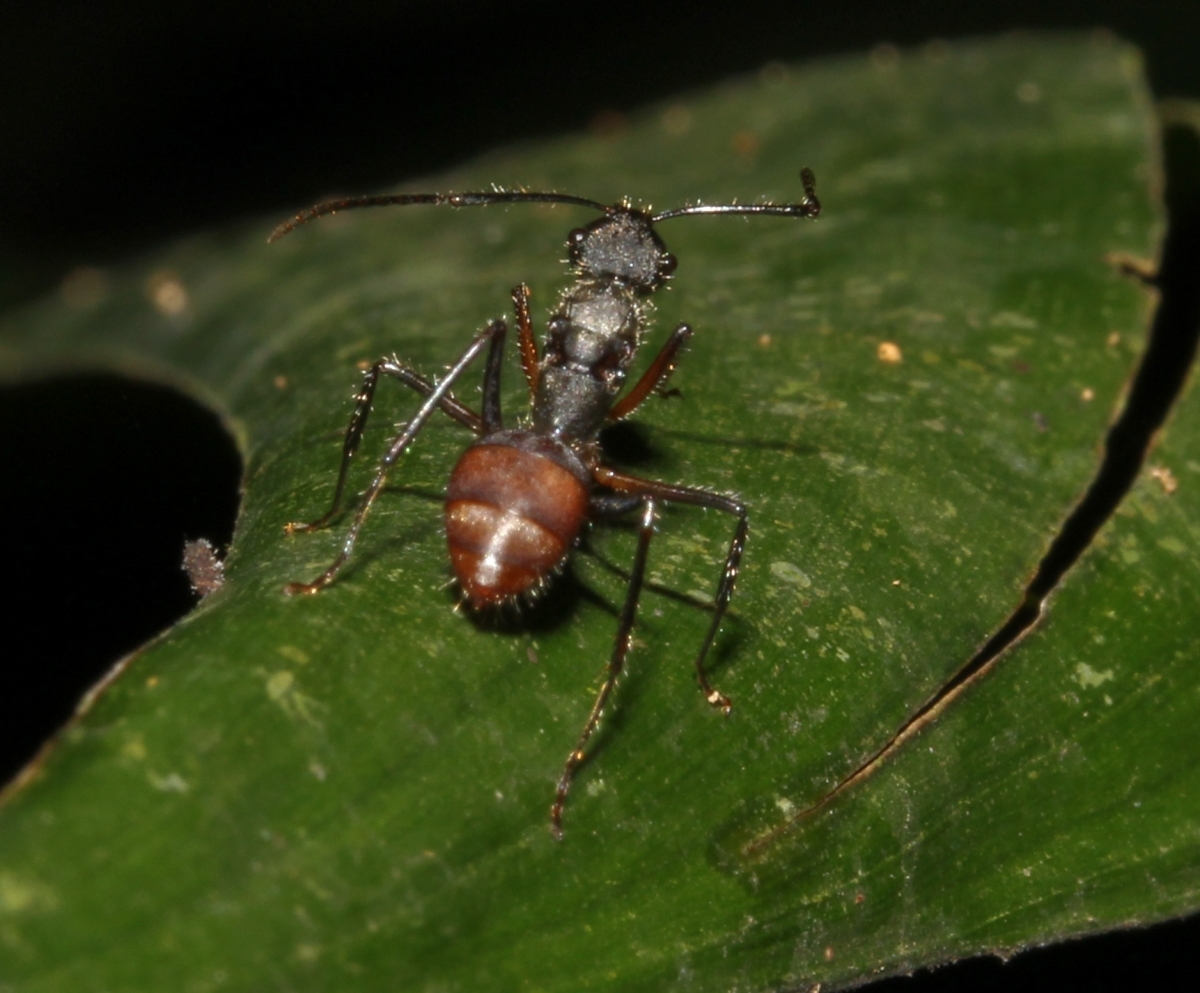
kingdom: Animalia
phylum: Arthropoda
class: Insecta
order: Hymenoptera
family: Formicidae
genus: Dendromyrmex
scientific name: Dendromyrmex nidulans
